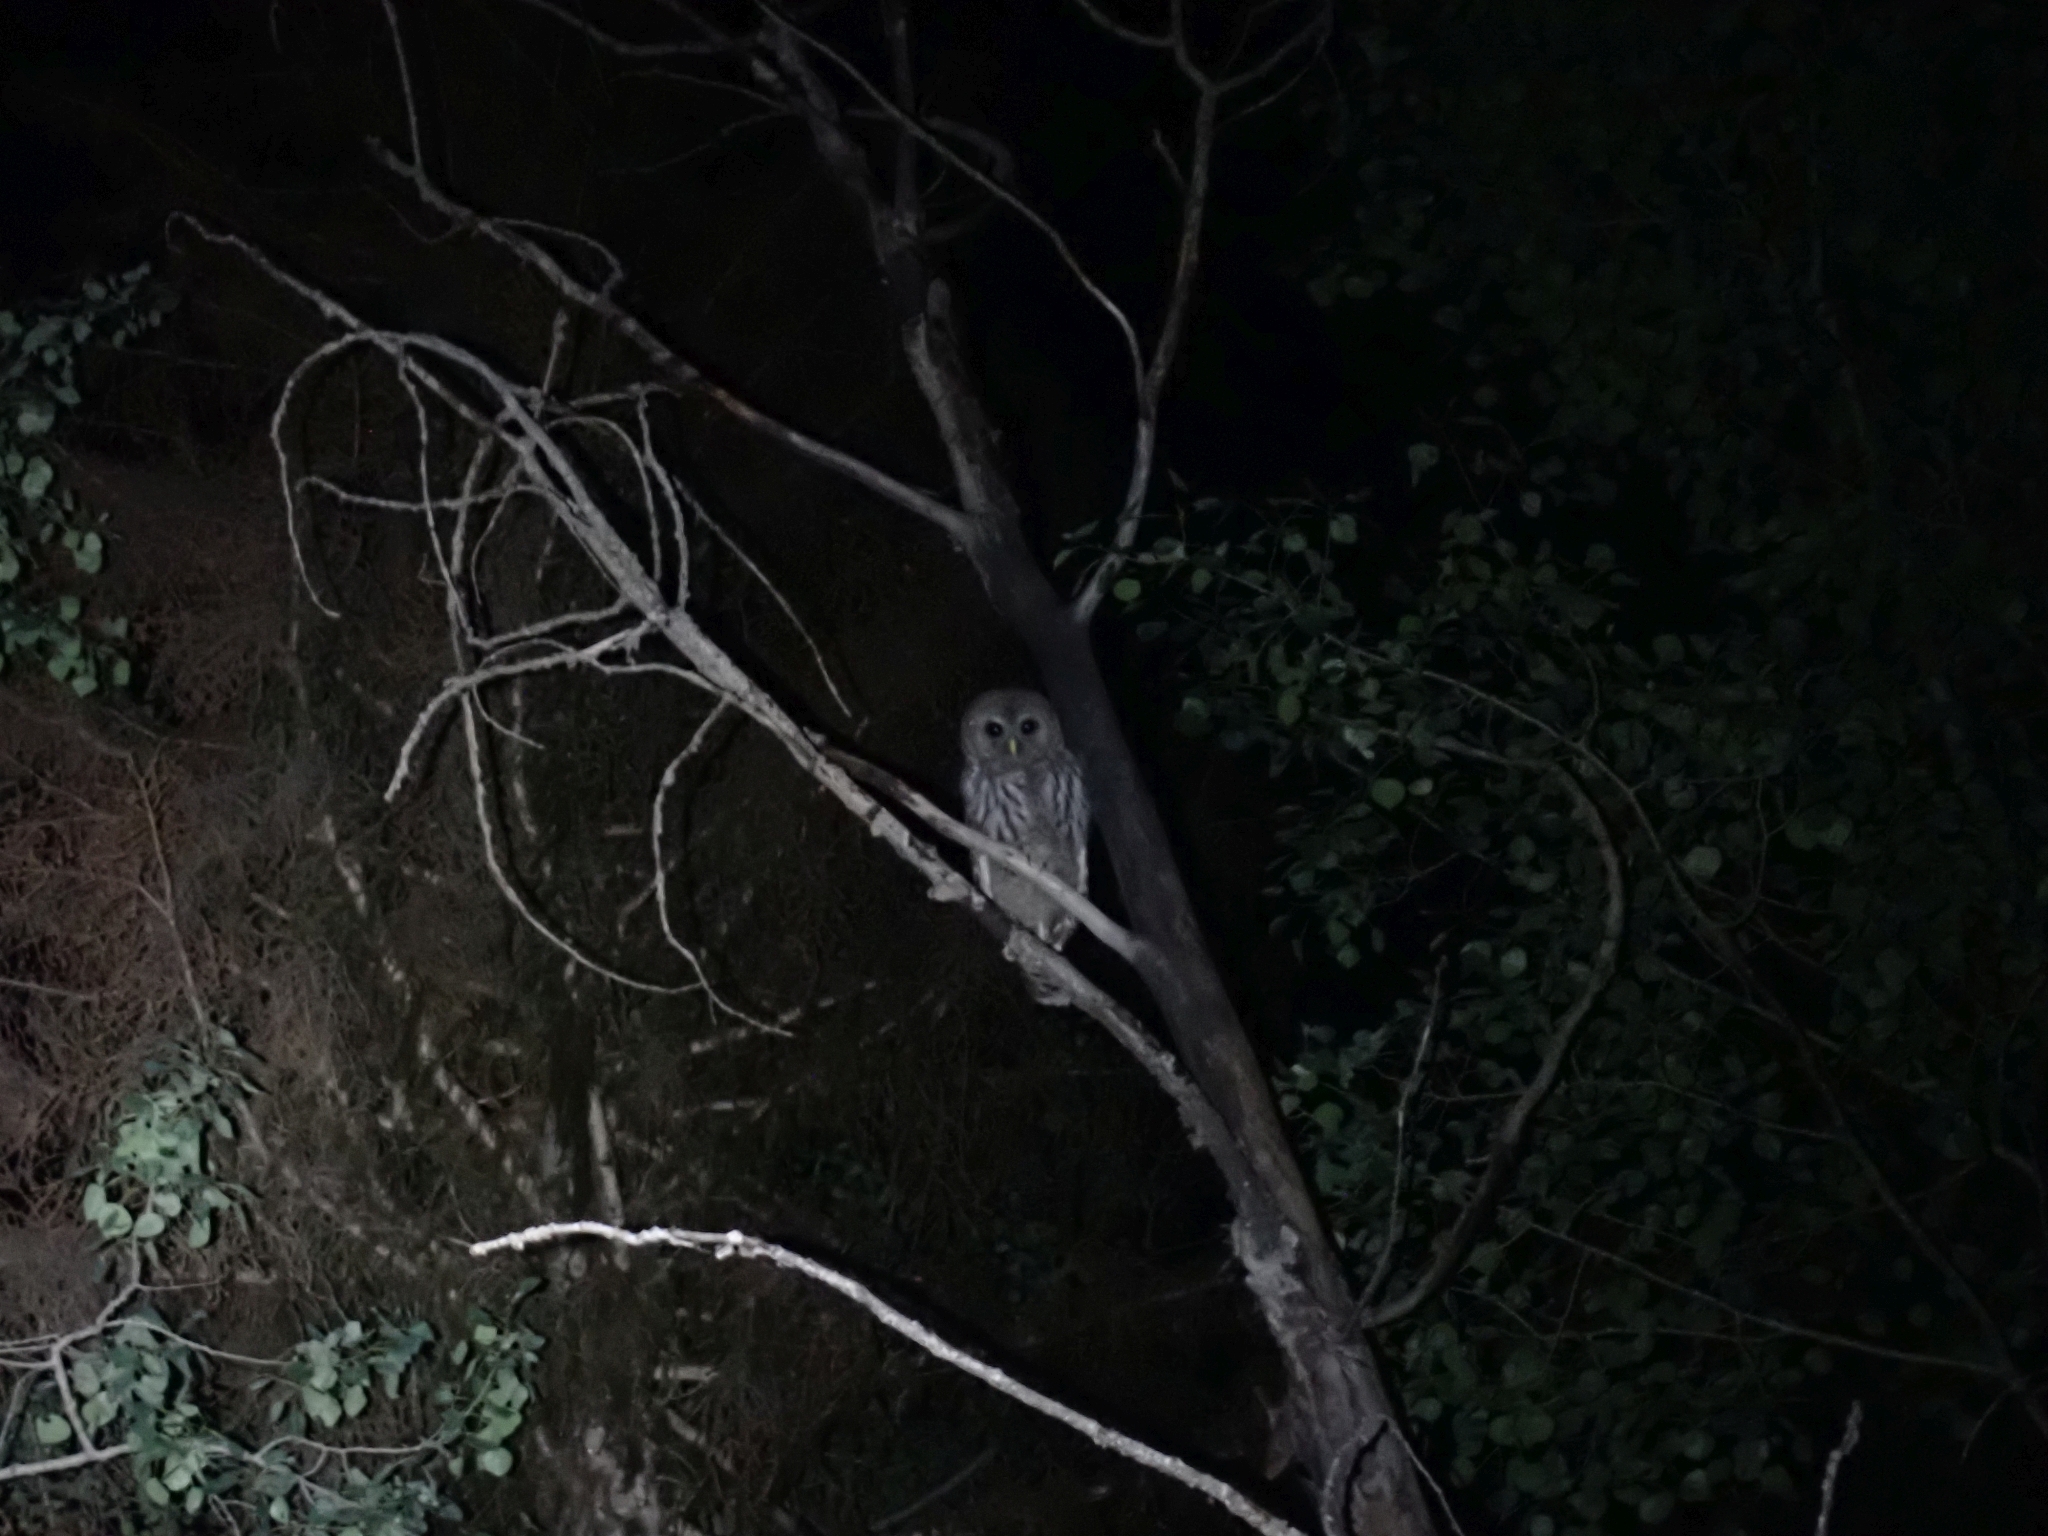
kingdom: Animalia
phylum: Chordata
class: Aves
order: Strigiformes
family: Strigidae
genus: Strix
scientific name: Strix varia
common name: Barred owl
